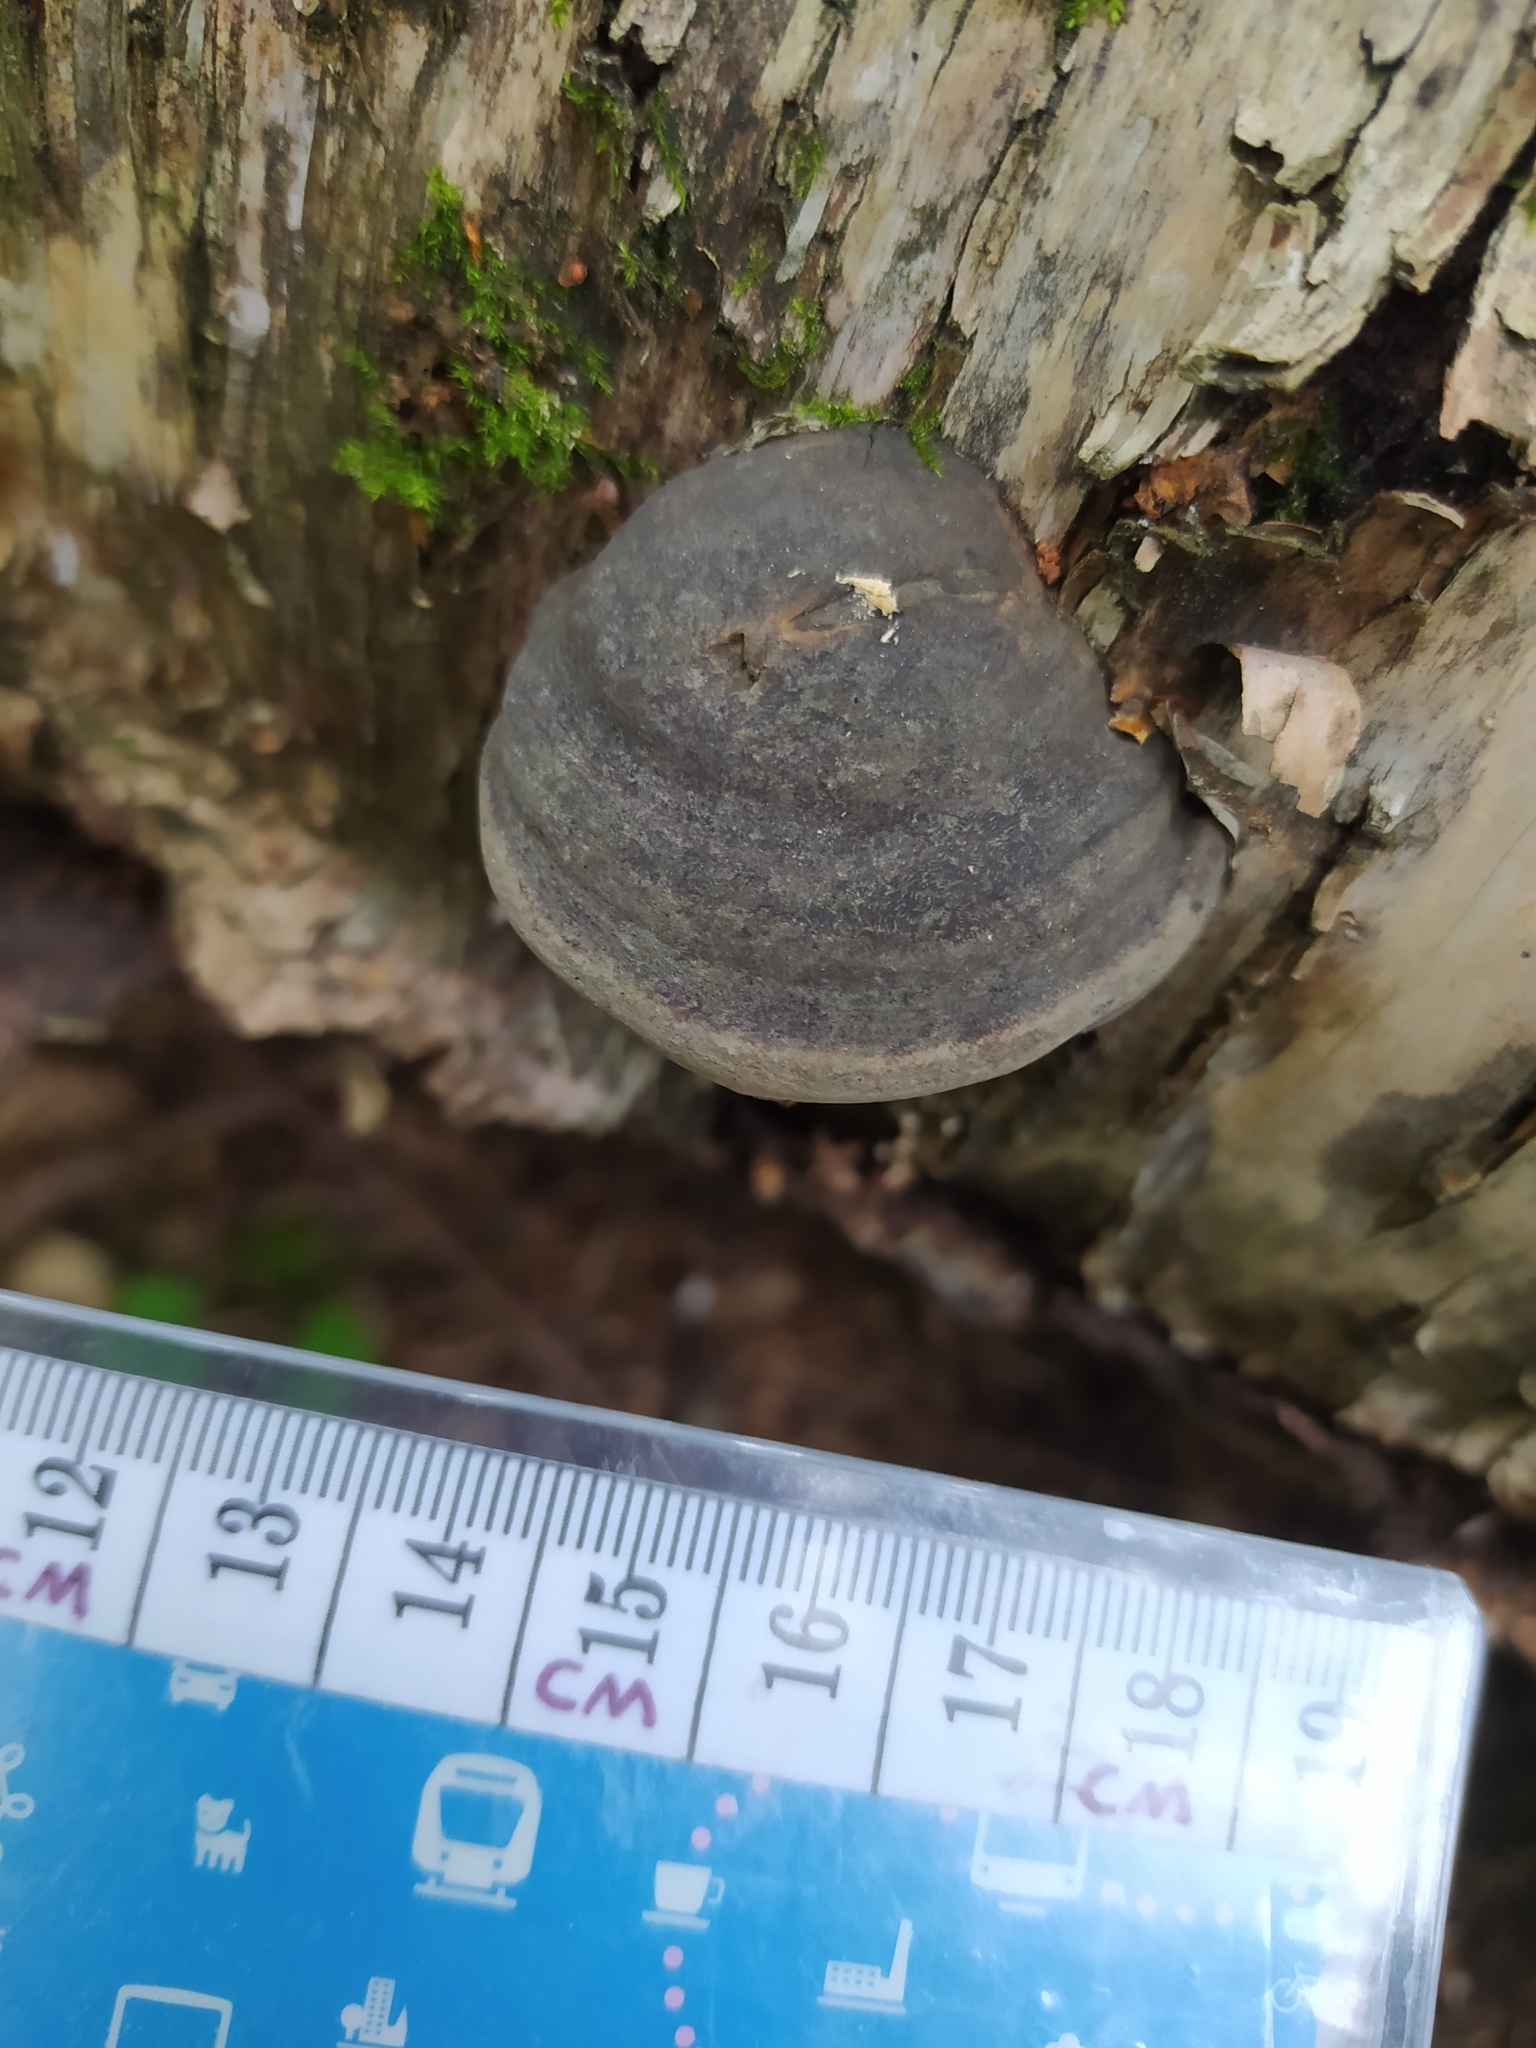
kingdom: Fungi
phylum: Basidiomycota
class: Agaricomycetes
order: Polyporales
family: Polyporaceae
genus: Fomes
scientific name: Fomes fomentarius
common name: Hoof fungus
